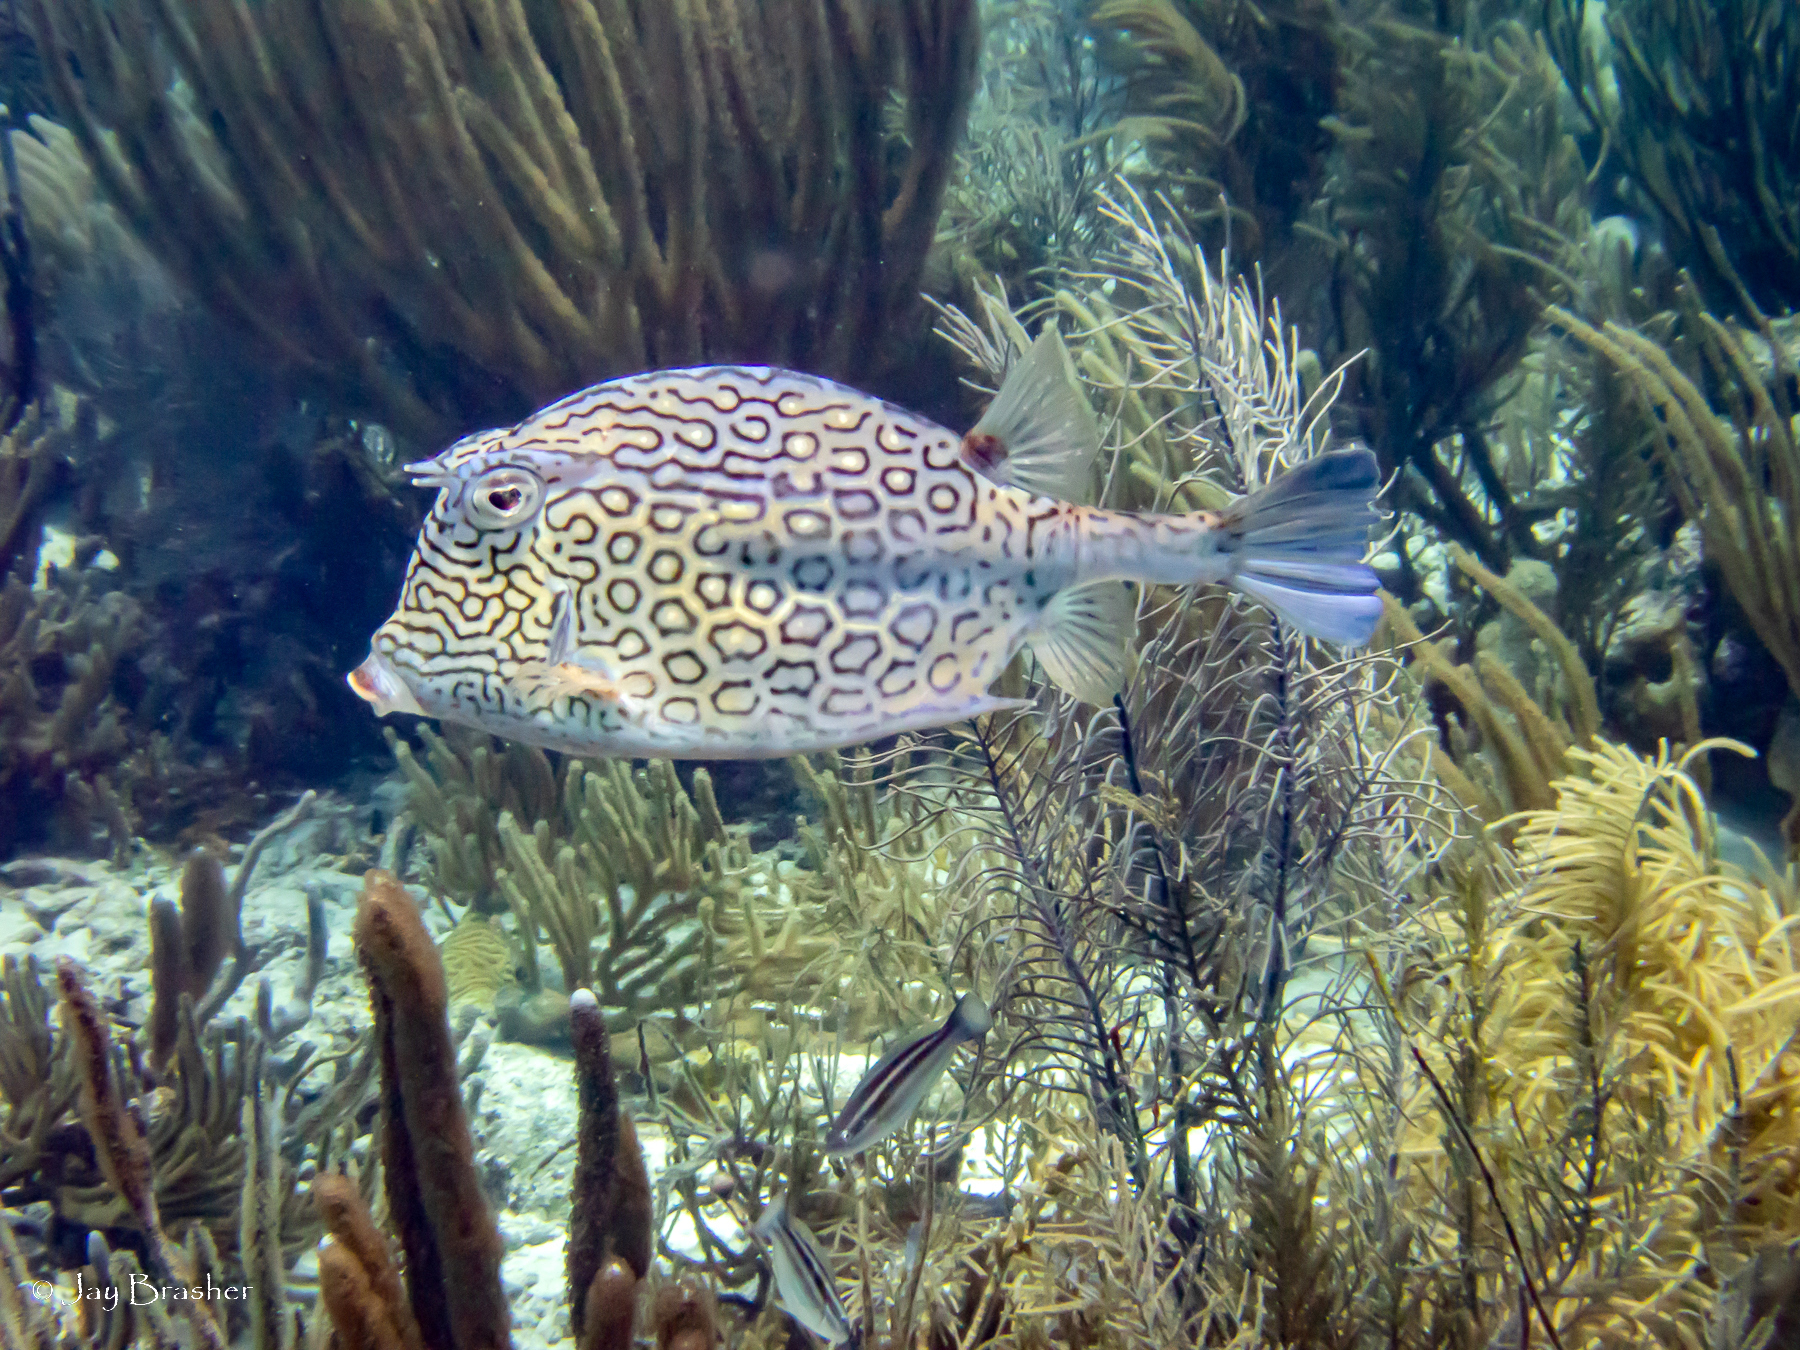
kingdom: Animalia
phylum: Chordata
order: Tetraodontiformes
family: Ostraciidae
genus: Acanthostracion
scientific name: Acanthostracion polygonius
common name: Honeycomb cowfish
